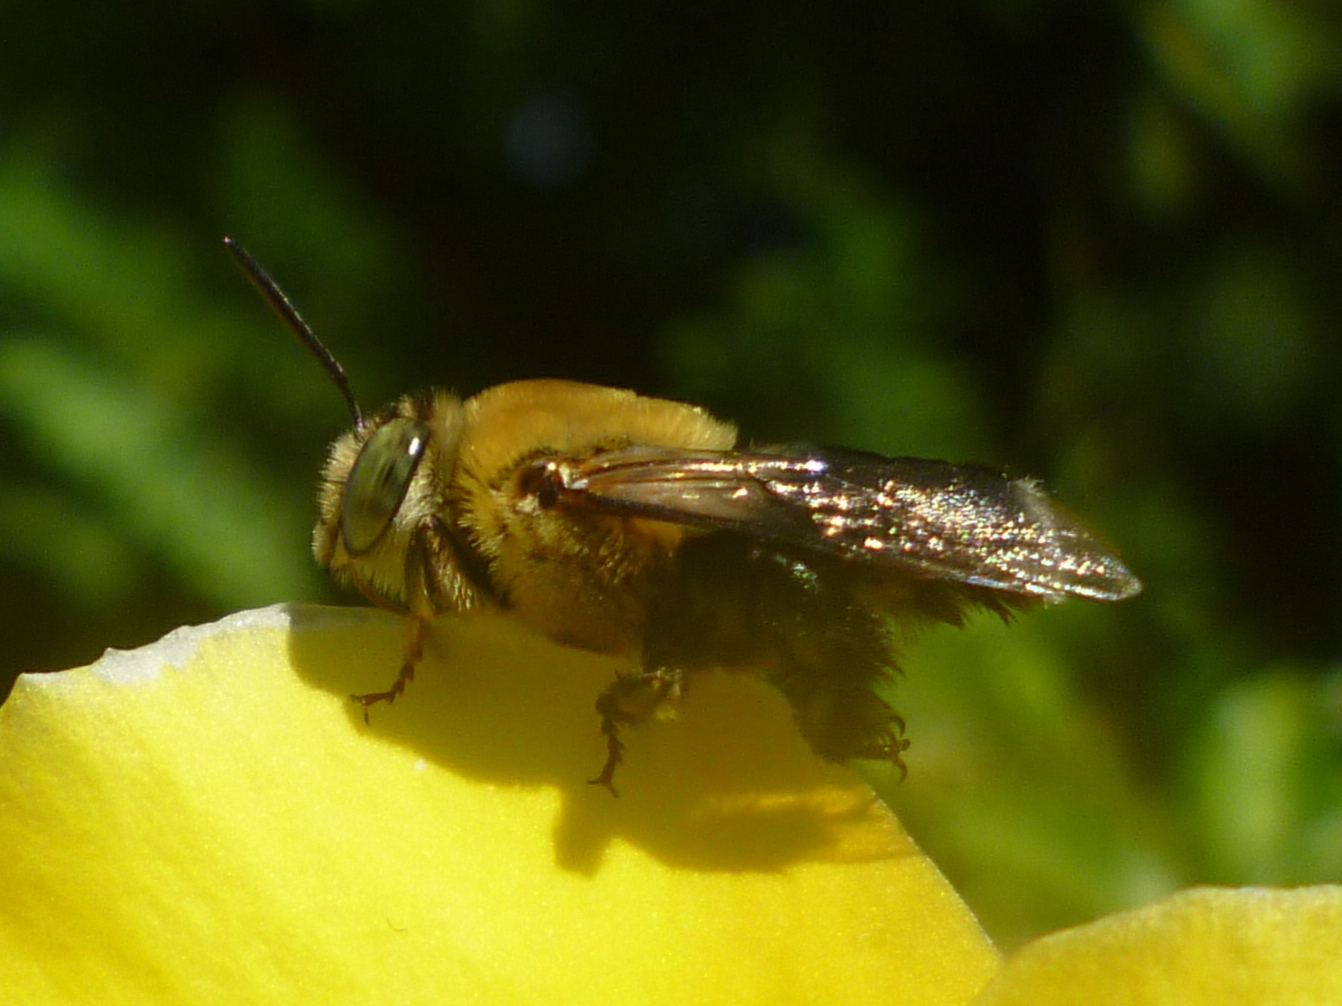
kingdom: Animalia
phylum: Arthropoda
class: Insecta
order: Hymenoptera
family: Apidae
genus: Centris
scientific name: Centris nitida
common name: Oil-collecting bee
